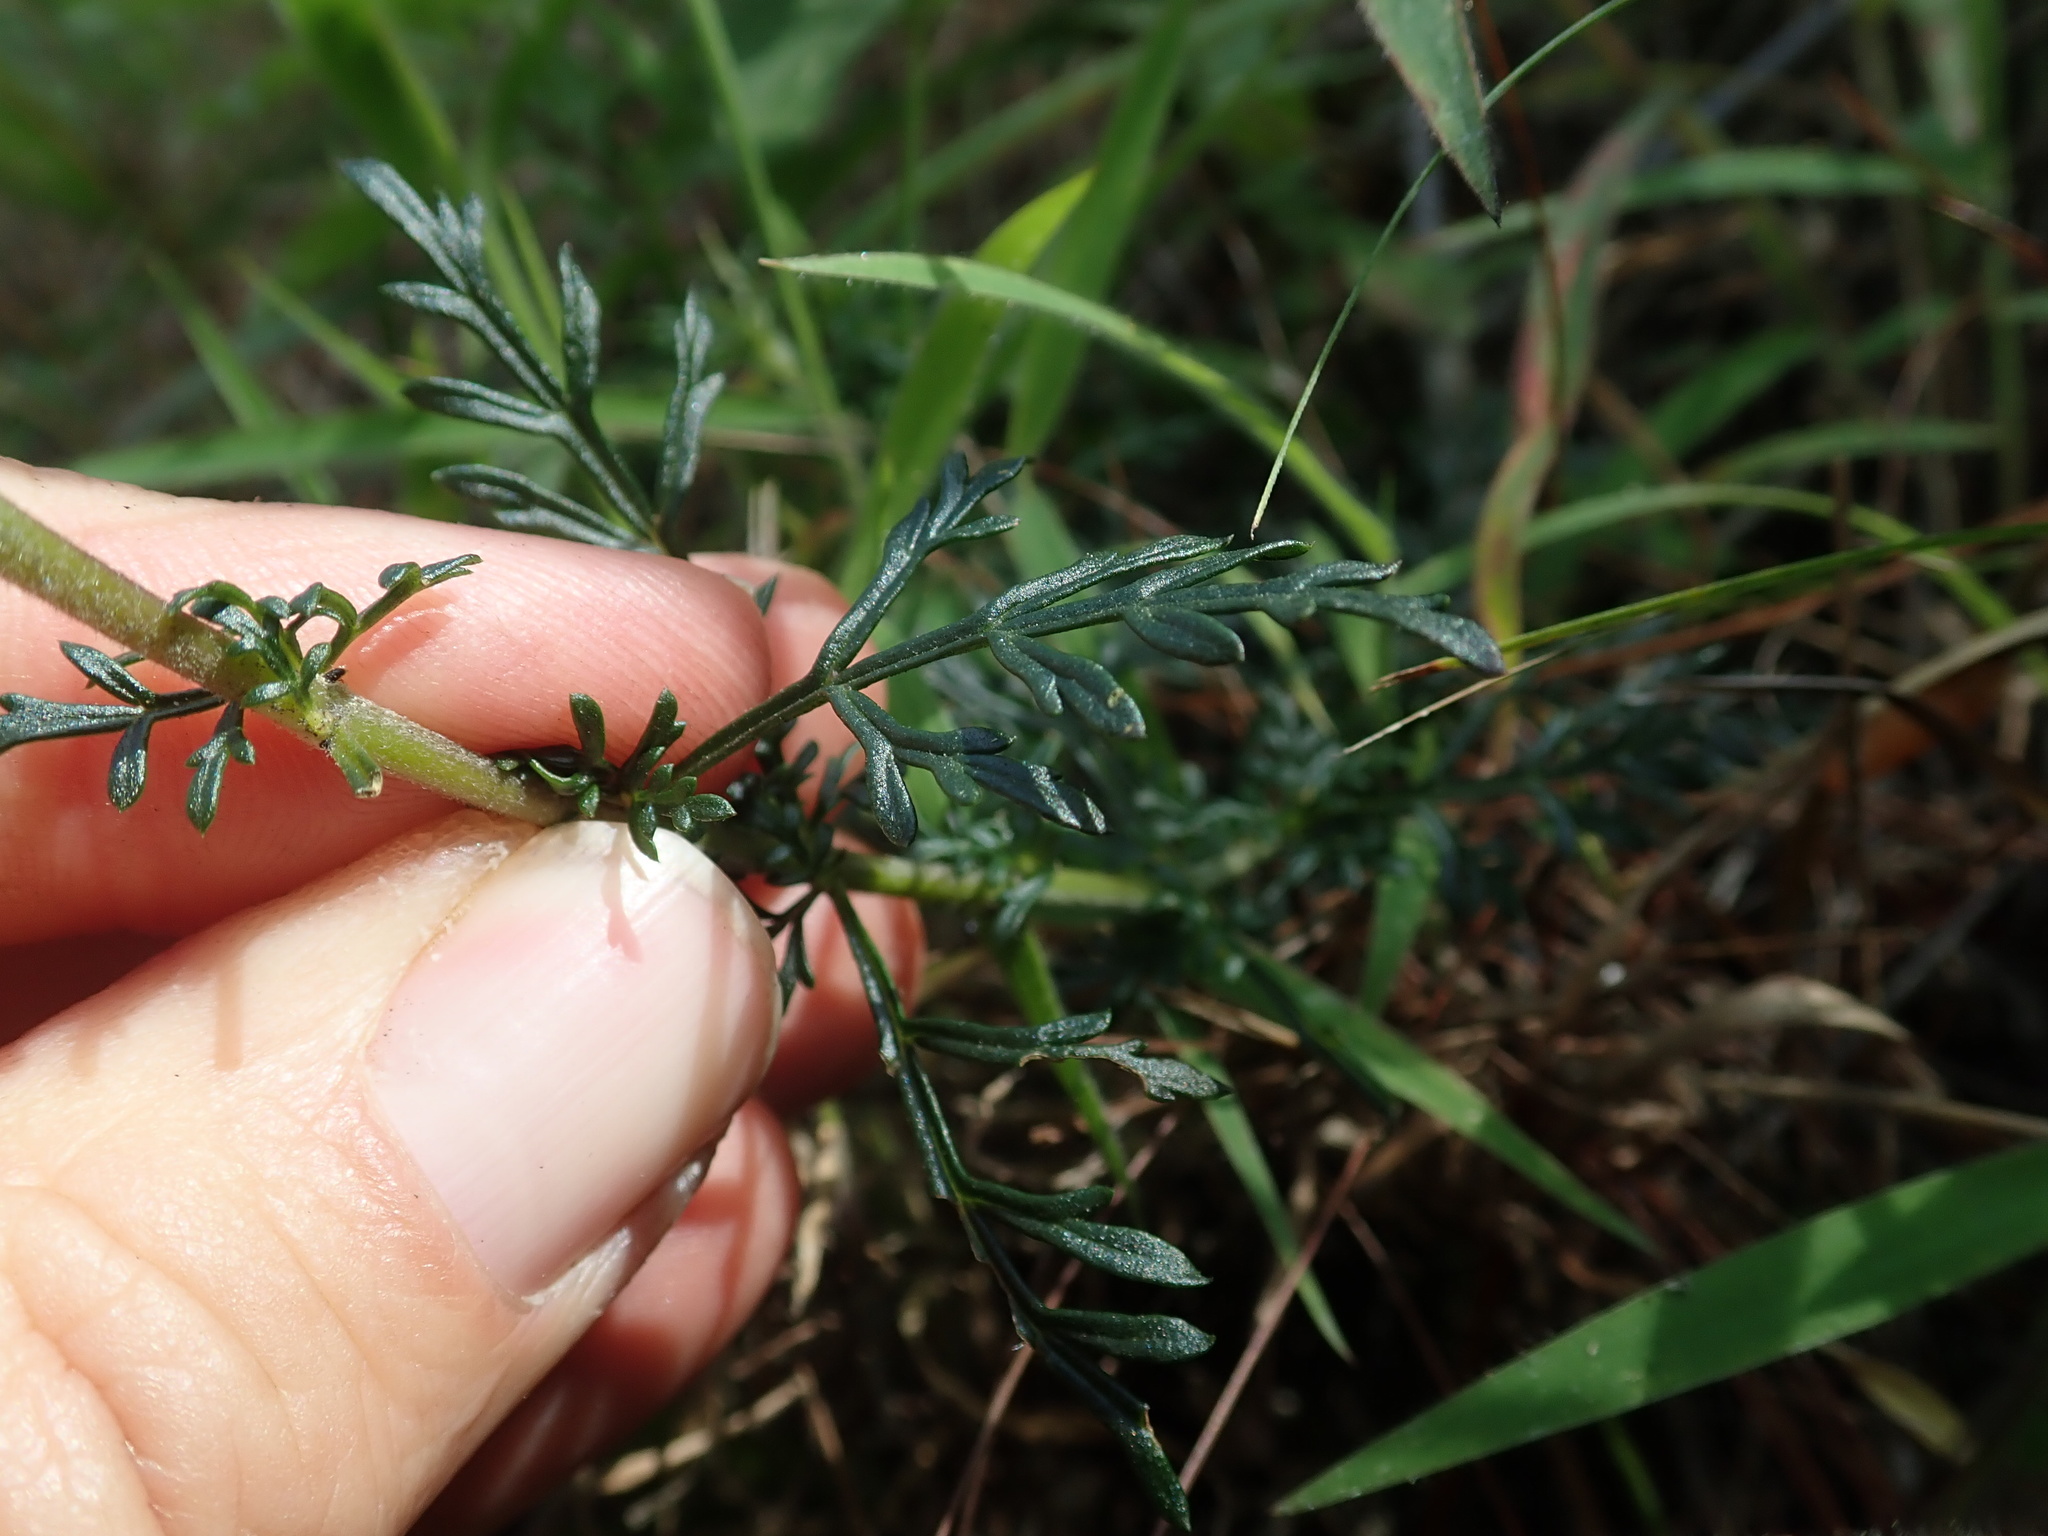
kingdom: Plantae
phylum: Tracheophyta
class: Magnoliopsida
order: Lamiales
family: Orobanchaceae
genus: Lamourouxia
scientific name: Lamourouxia multifida
